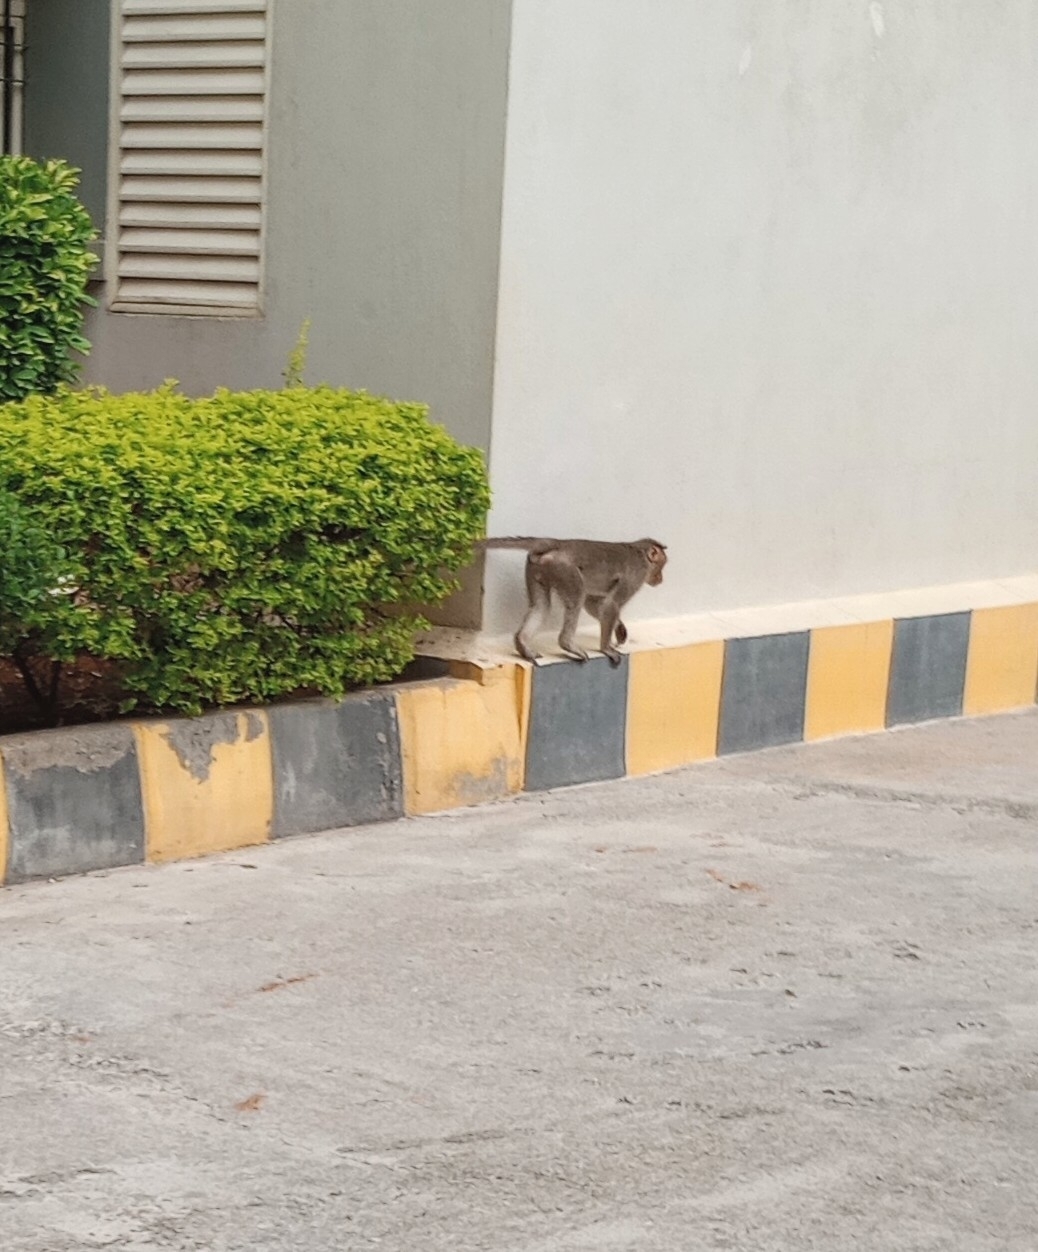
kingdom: Animalia
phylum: Chordata
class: Mammalia
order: Primates
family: Cercopithecidae
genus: Macaca
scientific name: Macaca radiata
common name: Bonnet macaque
